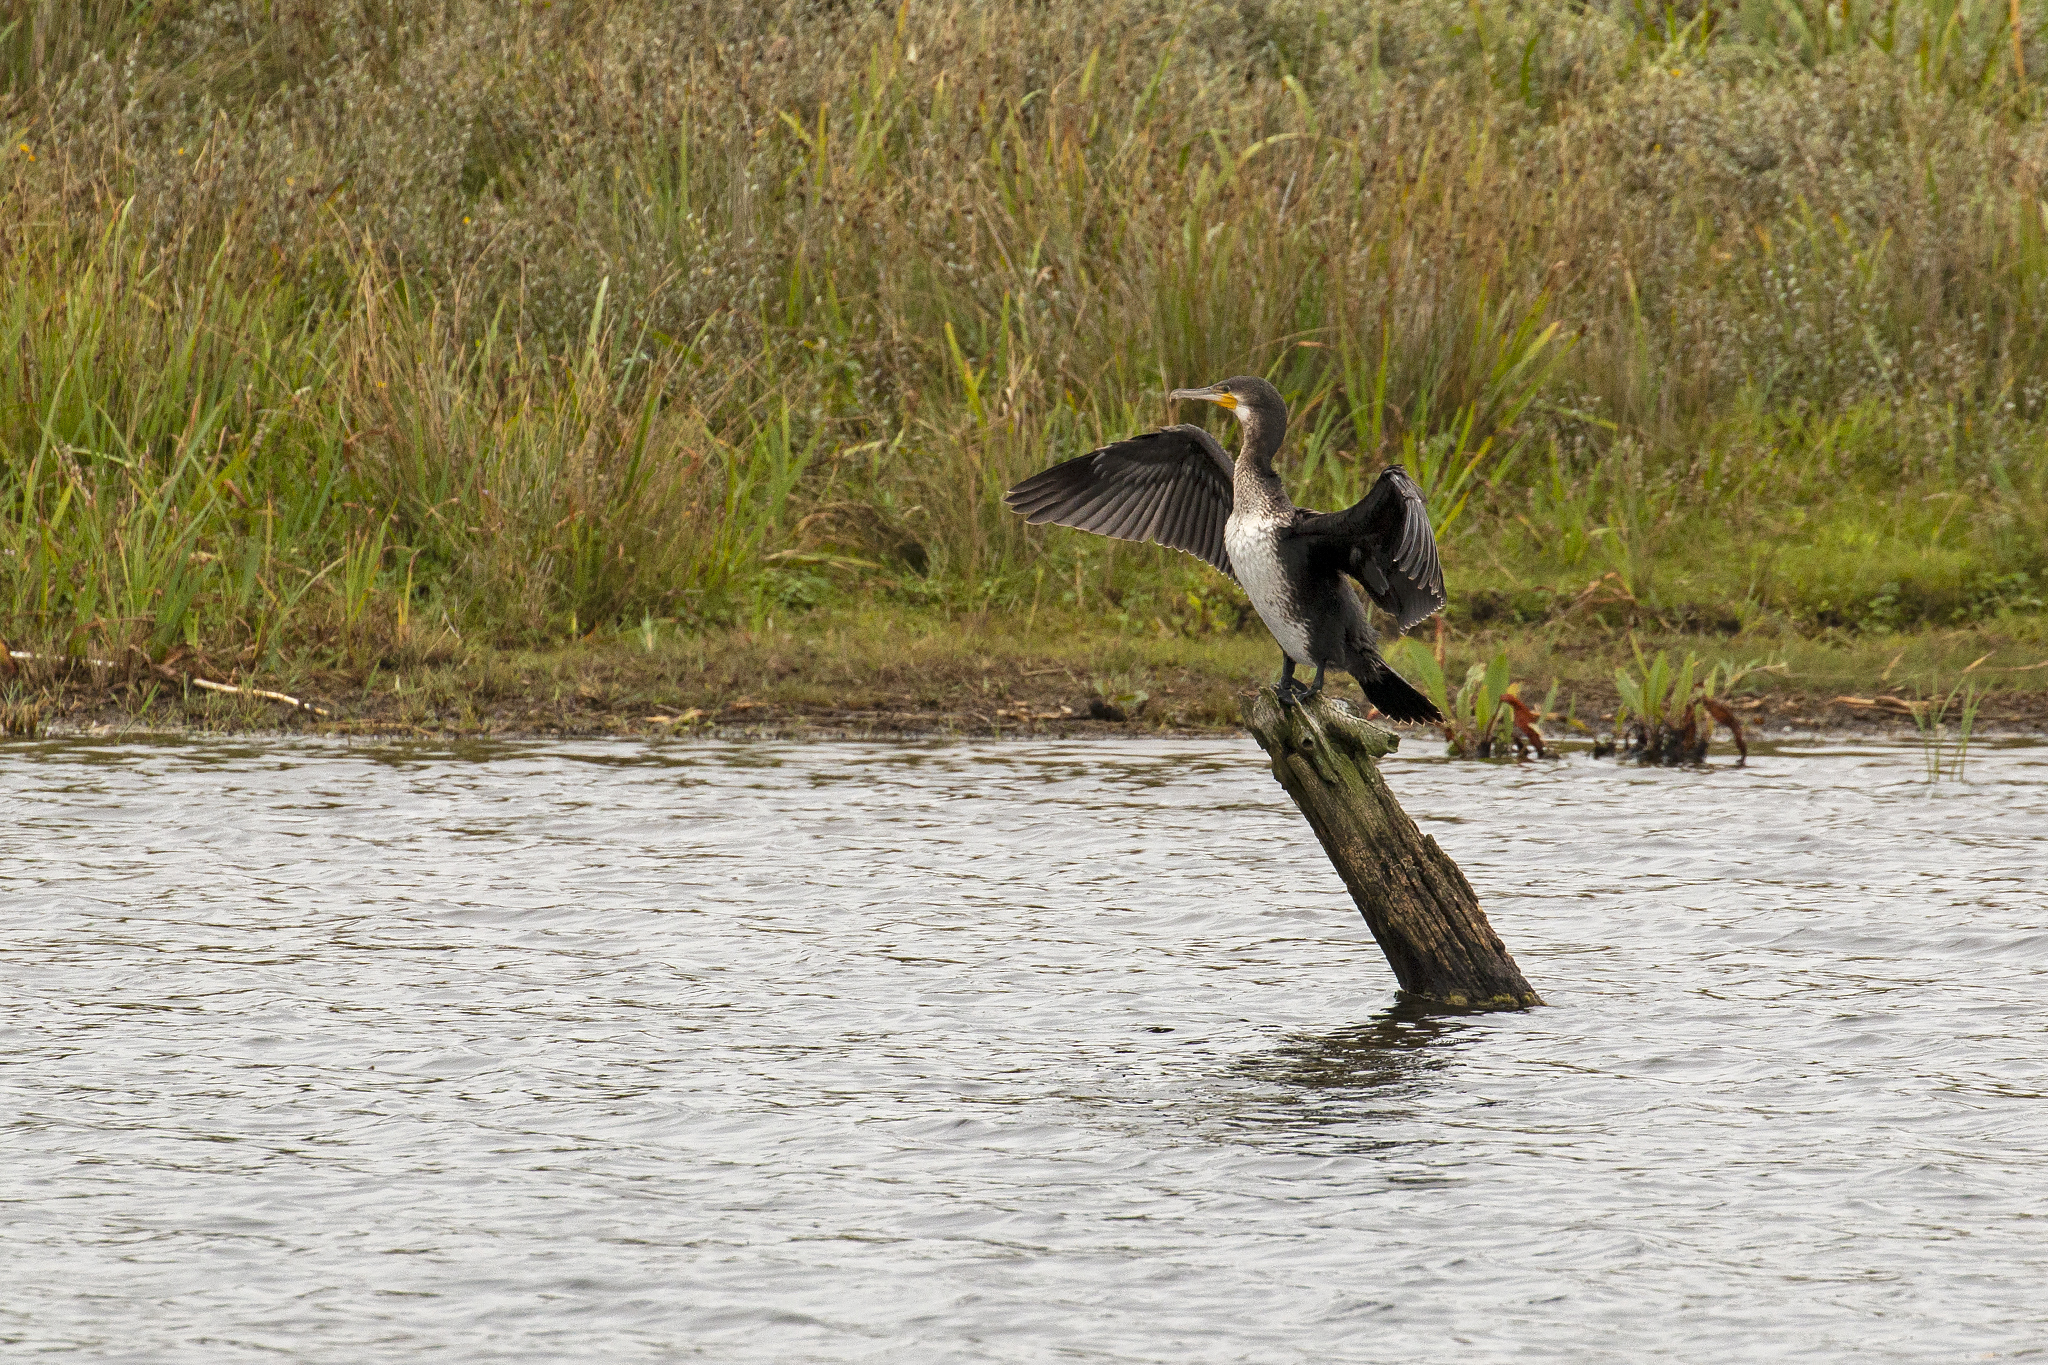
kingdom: Animalia
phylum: Chordata
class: Aves
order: Suliformes
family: Phalacrocoracidae
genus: Phalacrocorax
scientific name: Phalacrocorax carbo
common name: Great cormorant
